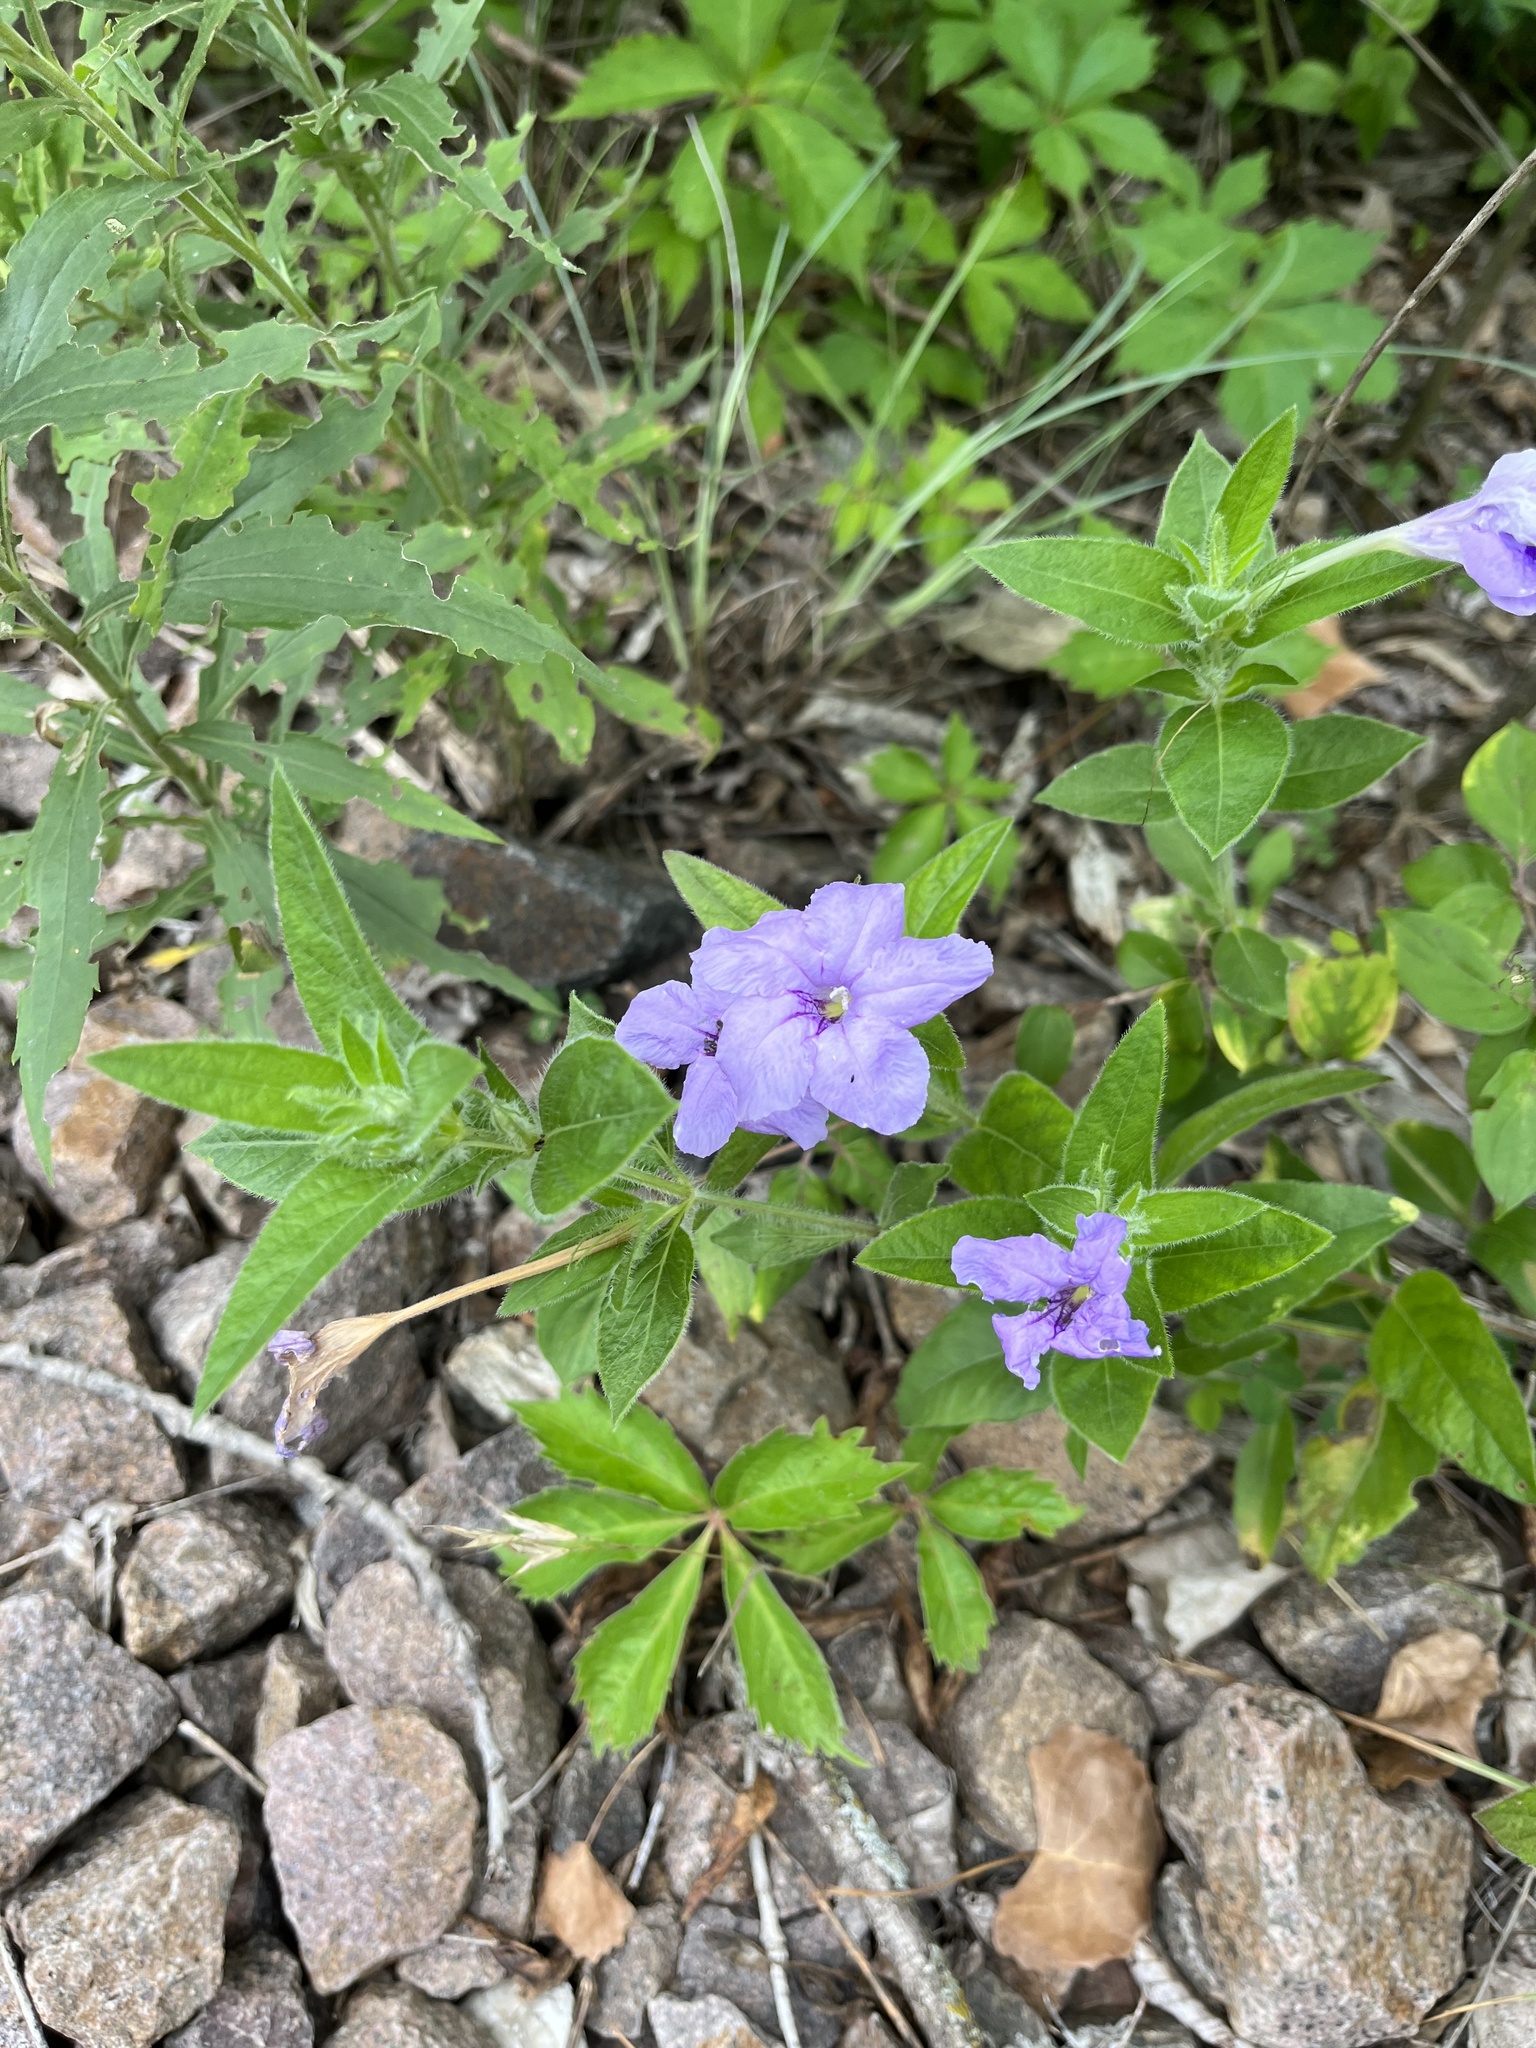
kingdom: Plantae
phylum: Tracheophyta
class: Magnoliopsida
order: Lamiales
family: Acanthaceae
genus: Ruellia
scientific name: Ruellia humilis
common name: Fringe-leaf ruellia
